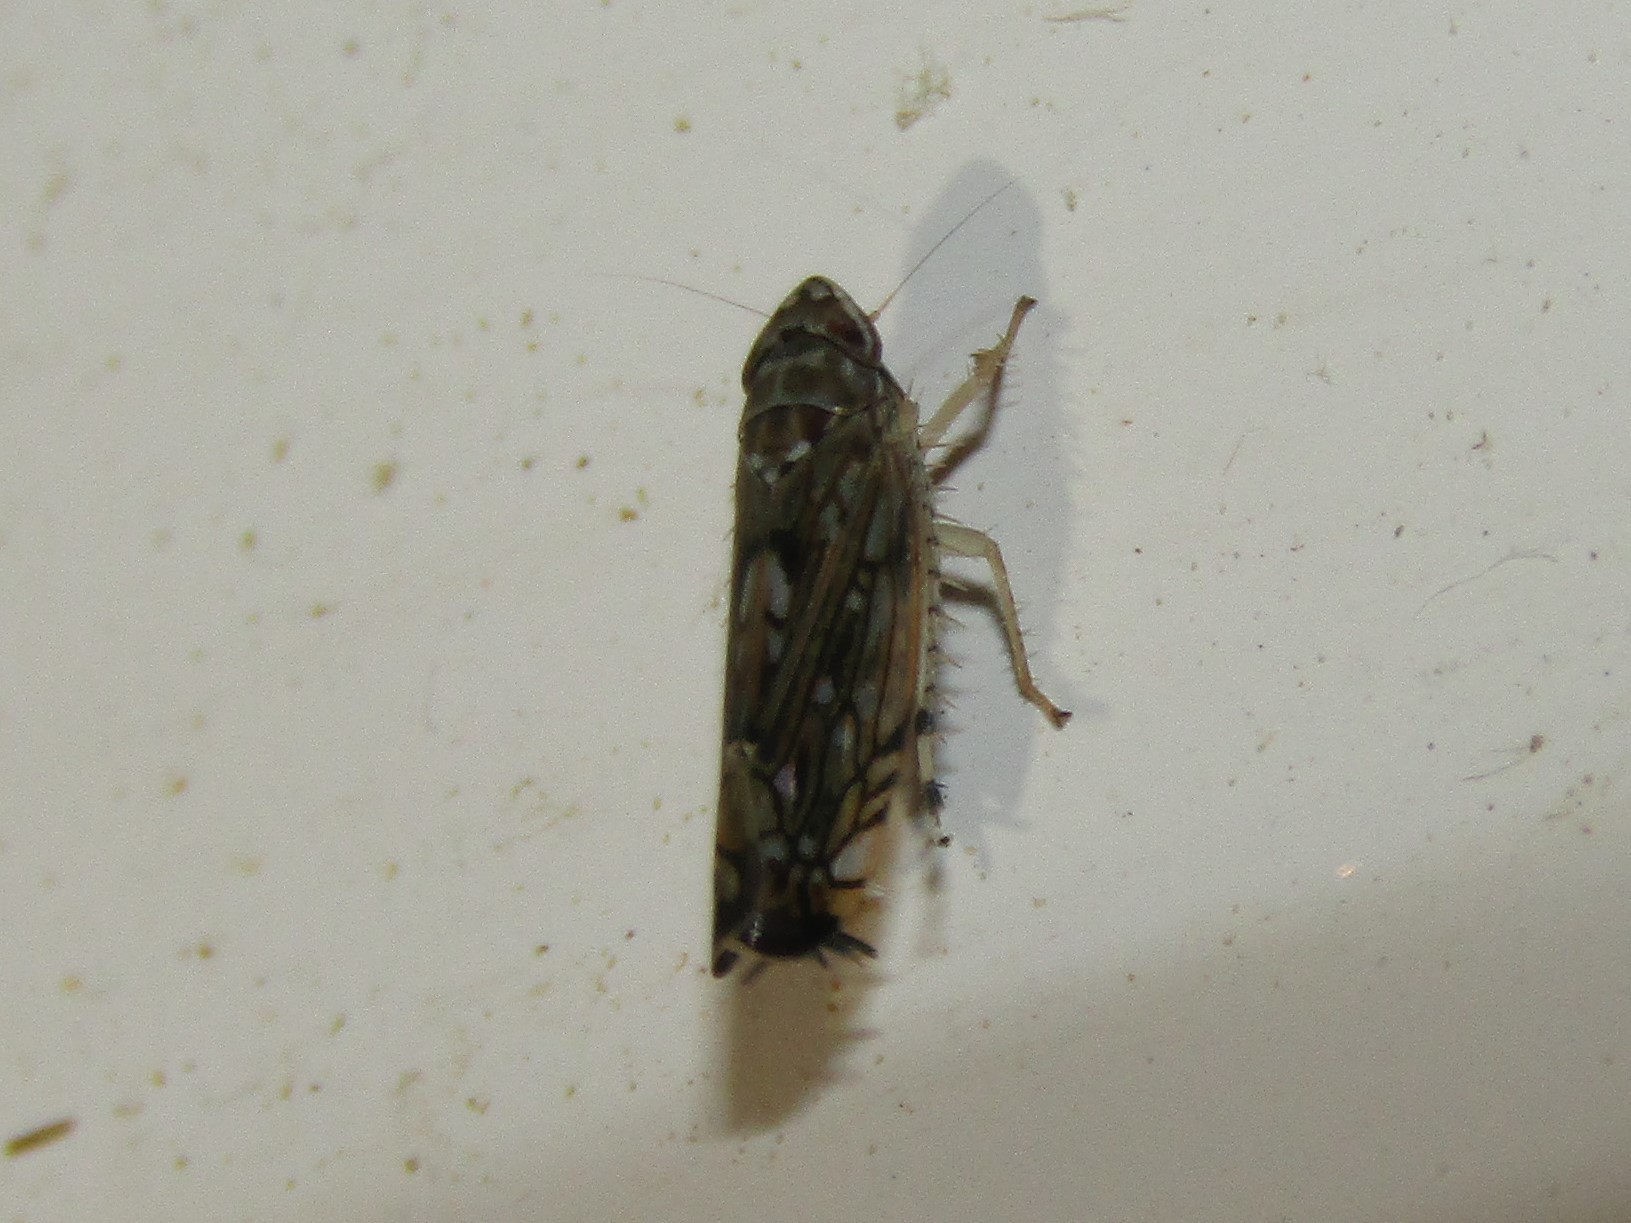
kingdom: Animalia
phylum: Arthropoda
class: Insecta
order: Hemiptera
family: Cicadellidae
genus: Scaphoideus
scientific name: Scaphoideus immistus
